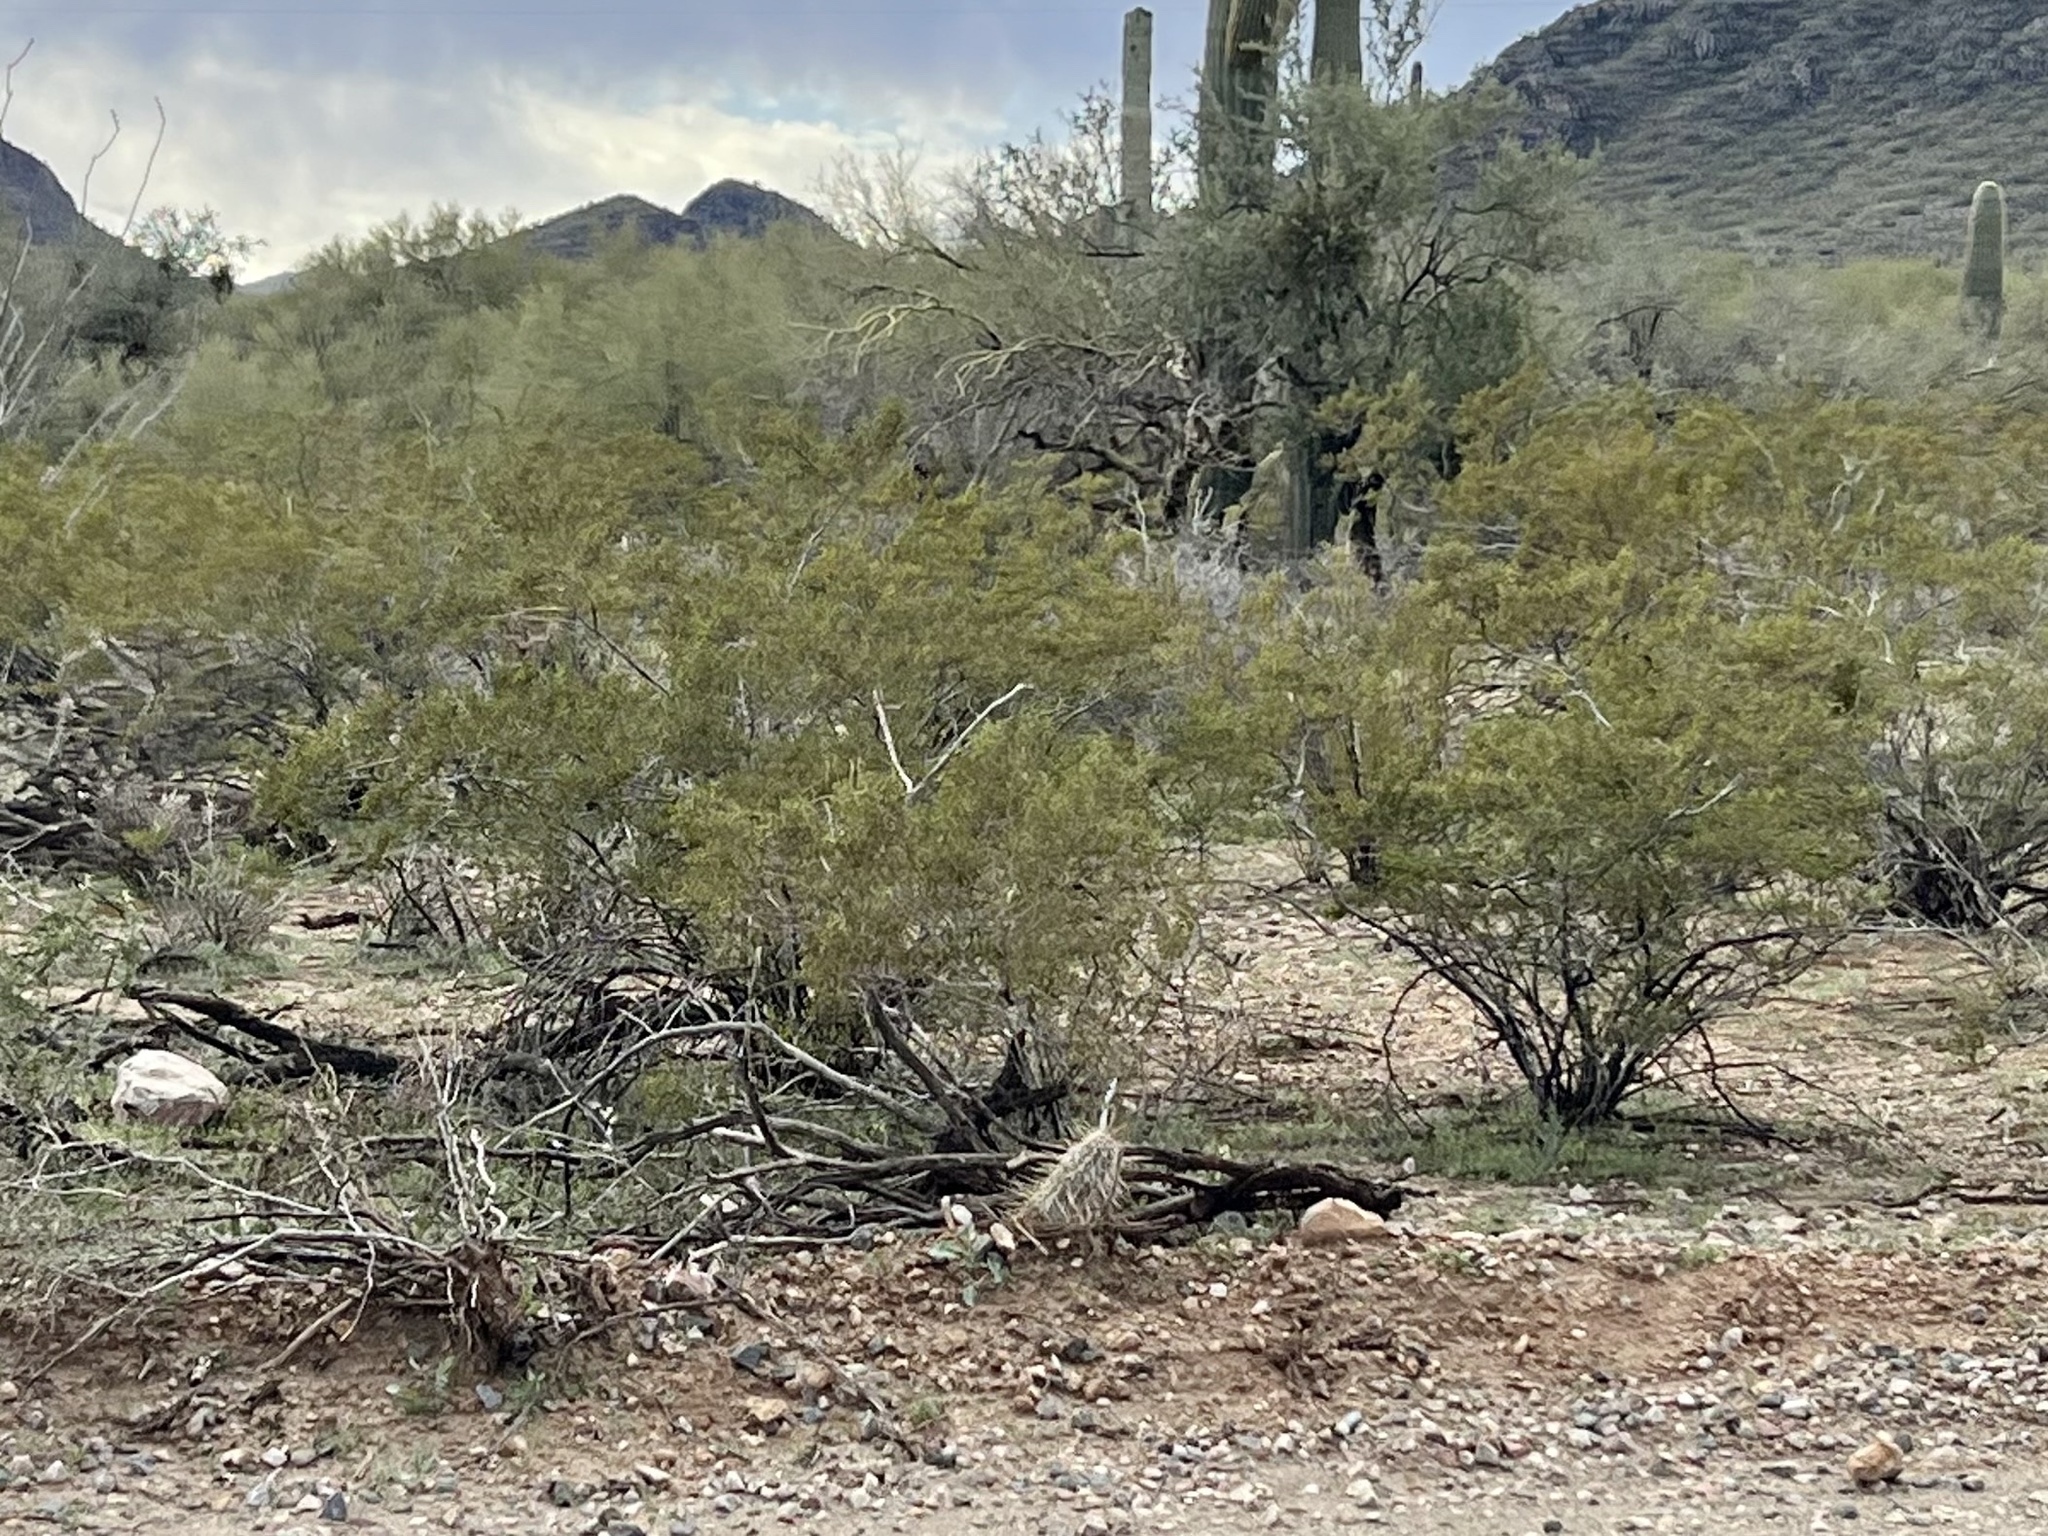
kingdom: Plantae
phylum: Tracheophyta
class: Magnoliopsida
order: Zygophyllales
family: Zygophyllaceae
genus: Larrea
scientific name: Larrea tridentata
